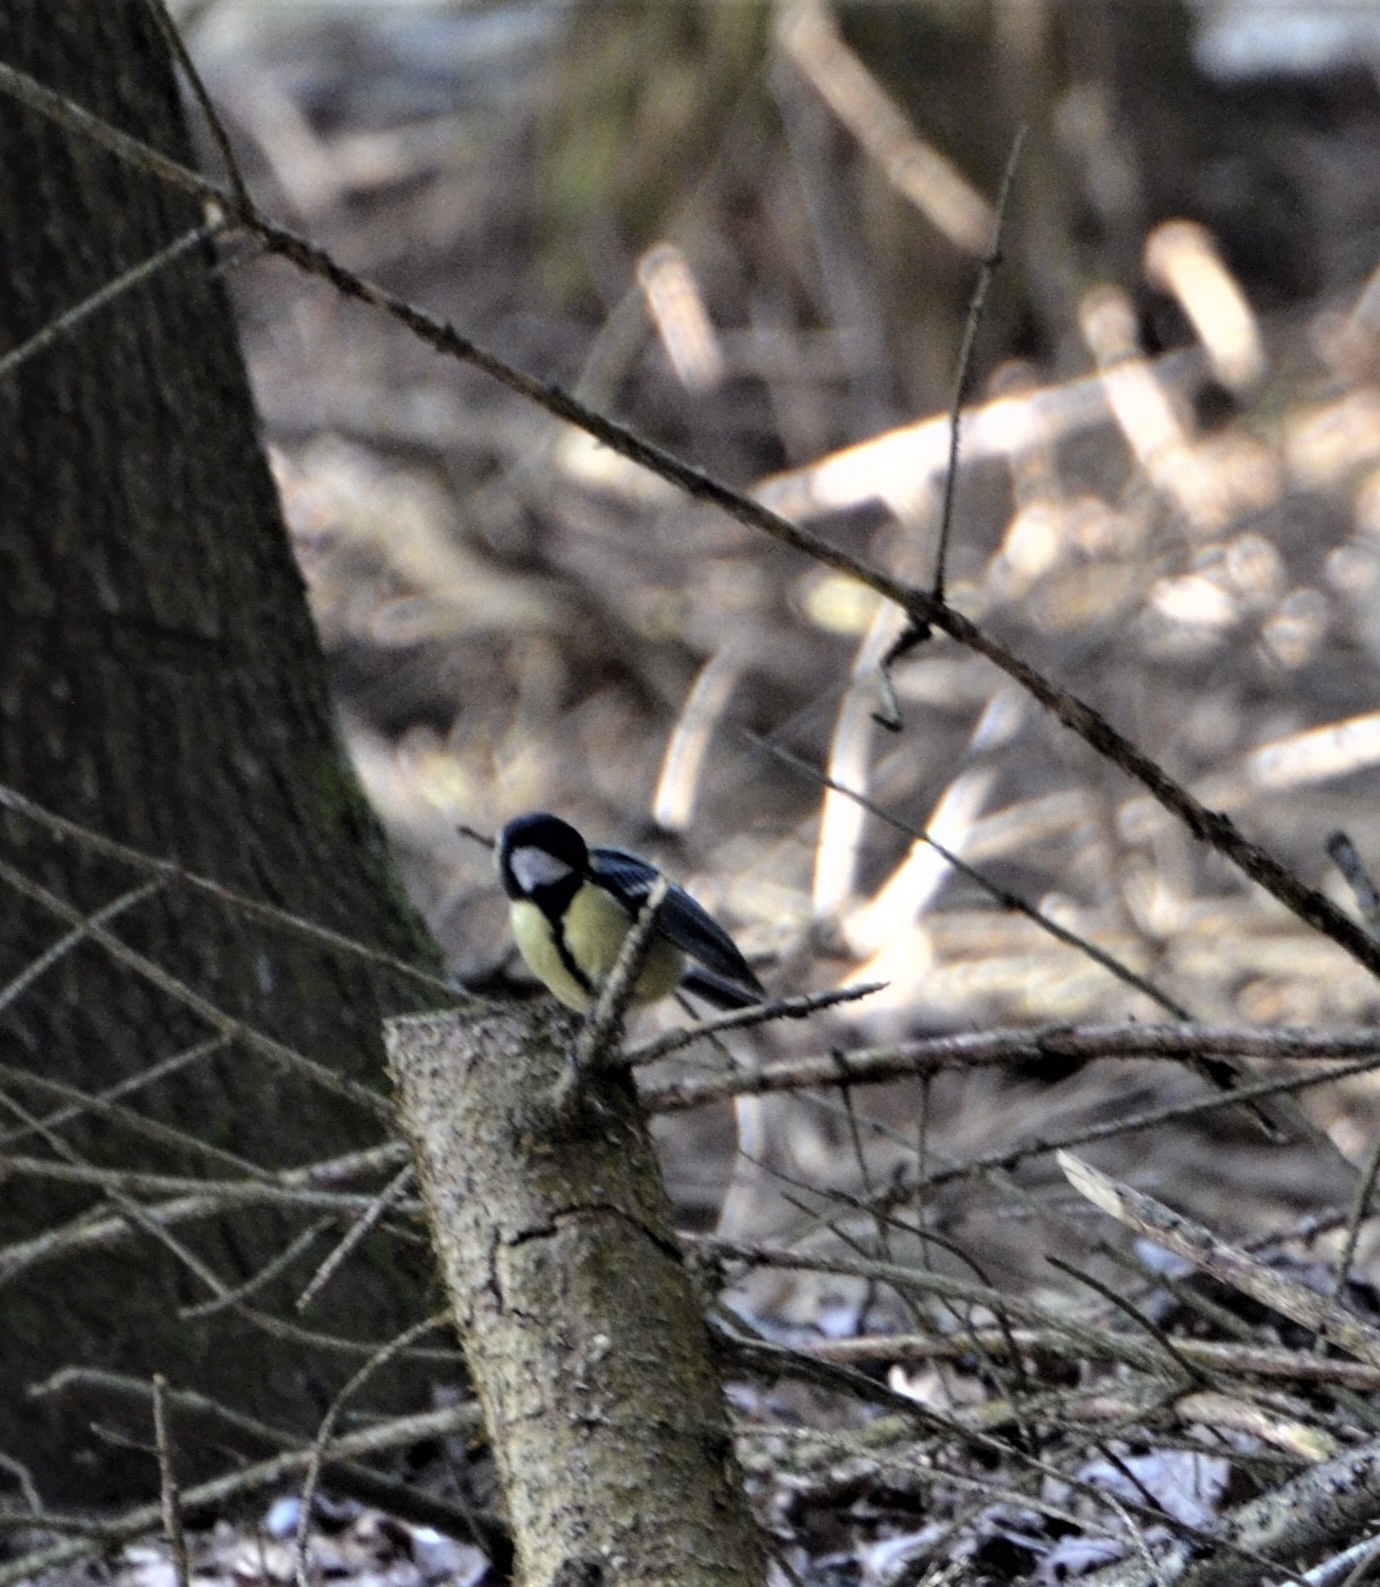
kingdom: Animalia
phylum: Chordata
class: Aves
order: Passeriformes
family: Paridae
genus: Parus
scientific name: Parus major
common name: Great tit
